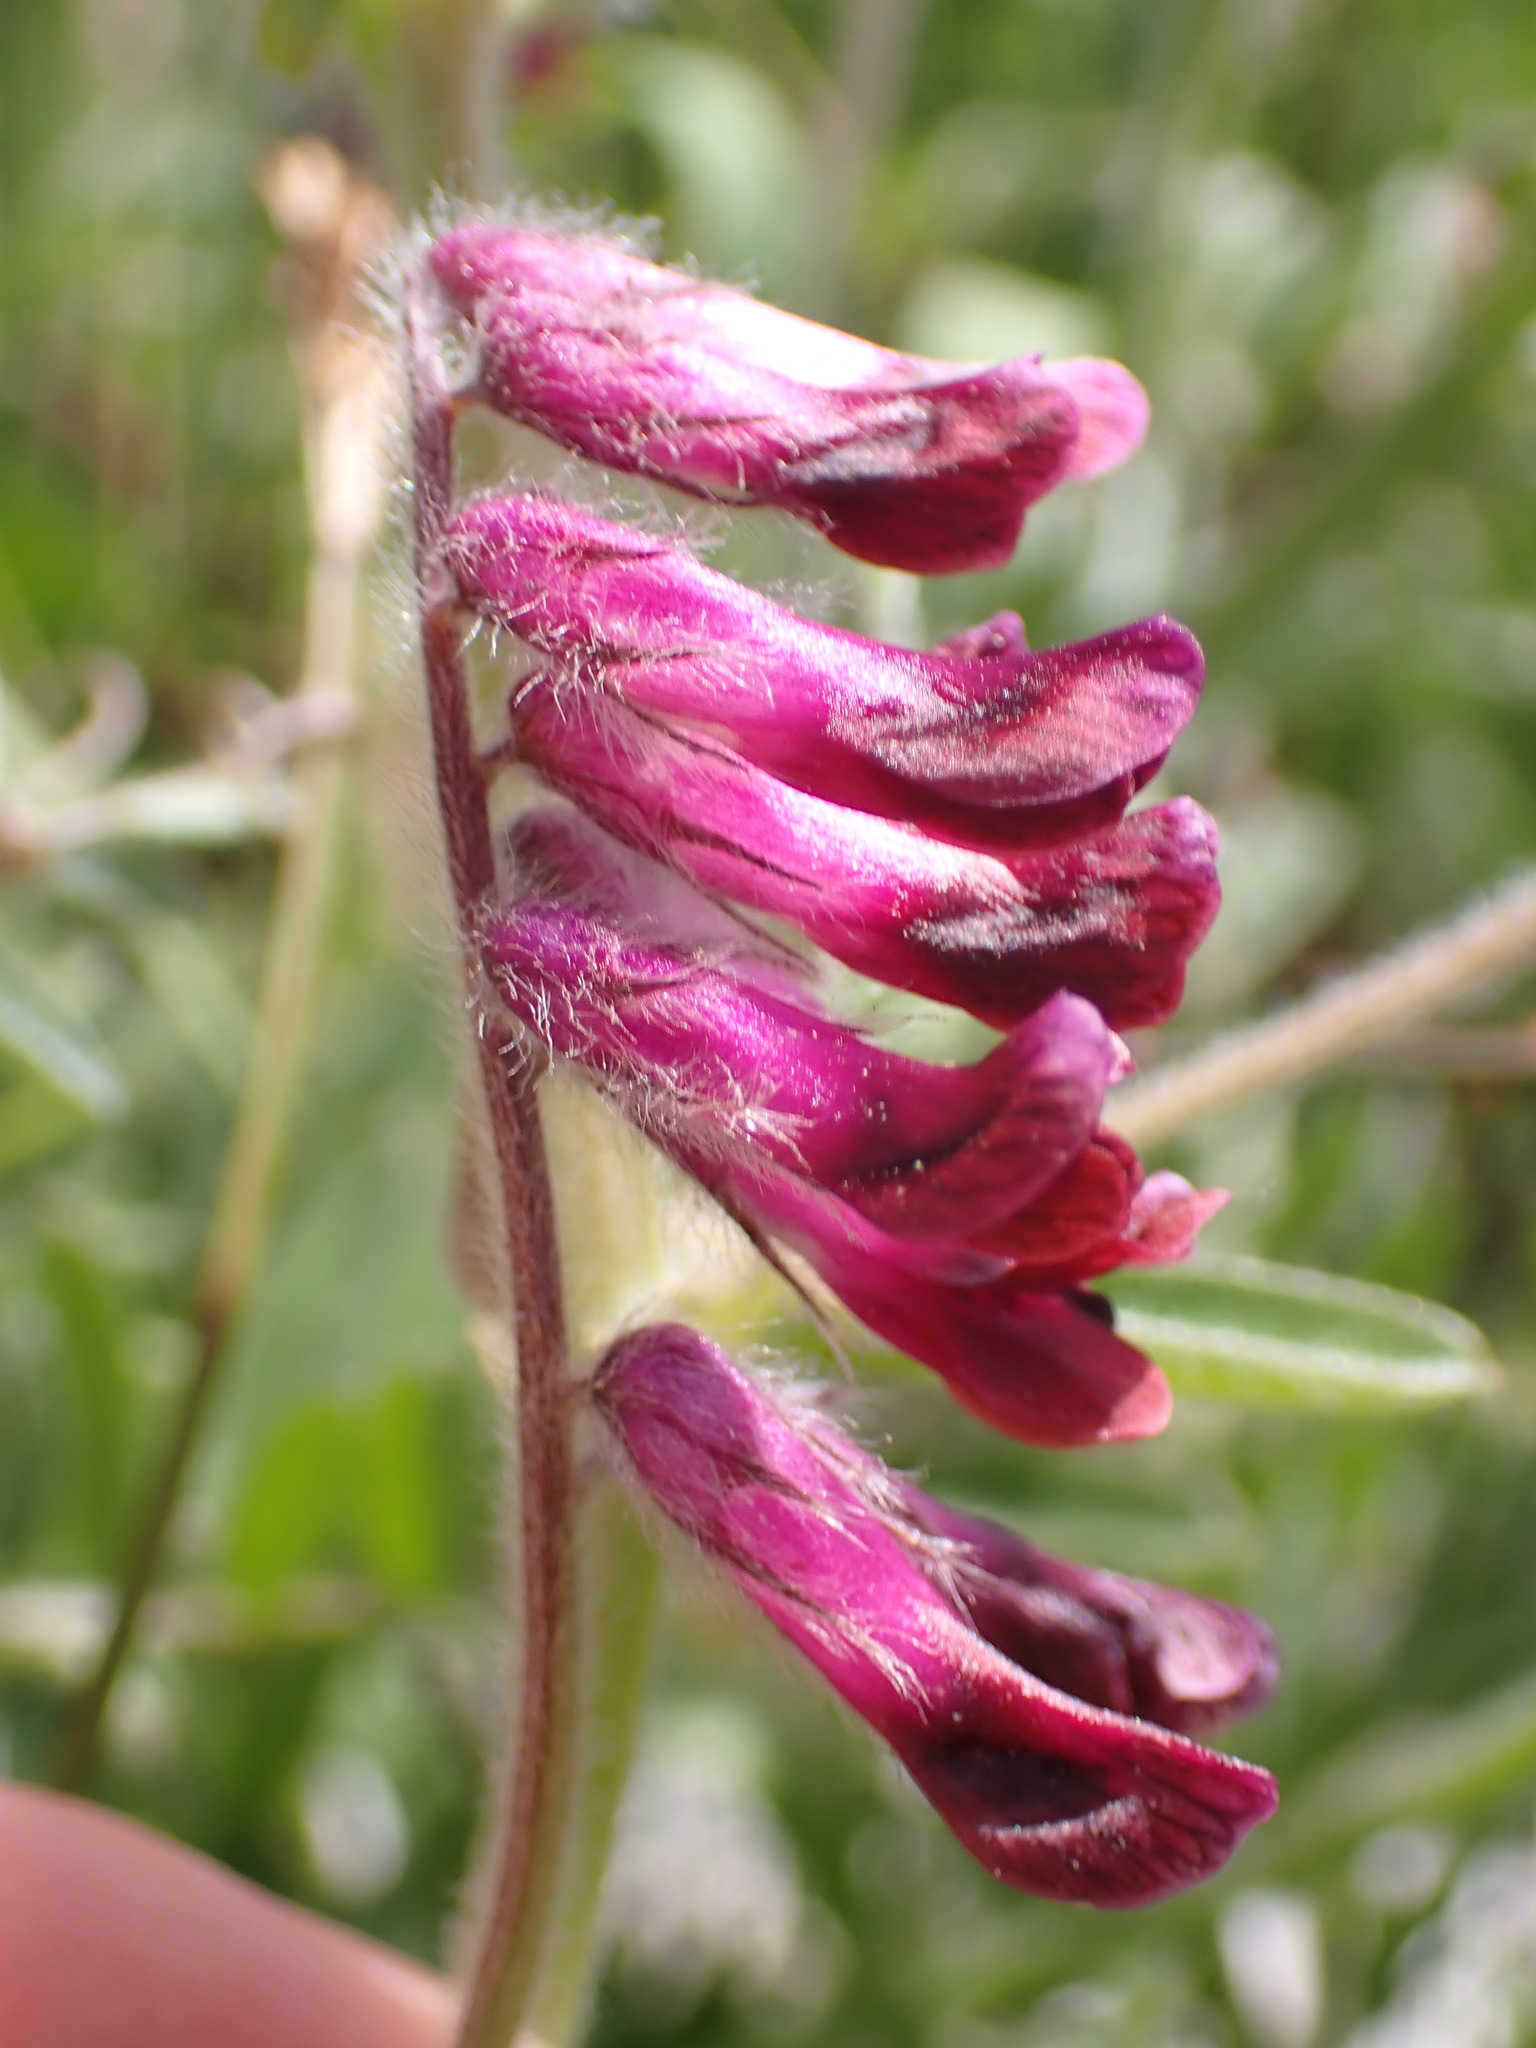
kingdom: Plantae
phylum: Tracheophyta
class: Magnoliopsida
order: Fabales
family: Fabaceae
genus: Vicia
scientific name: Vicia benghalensis
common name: Purple vetch
